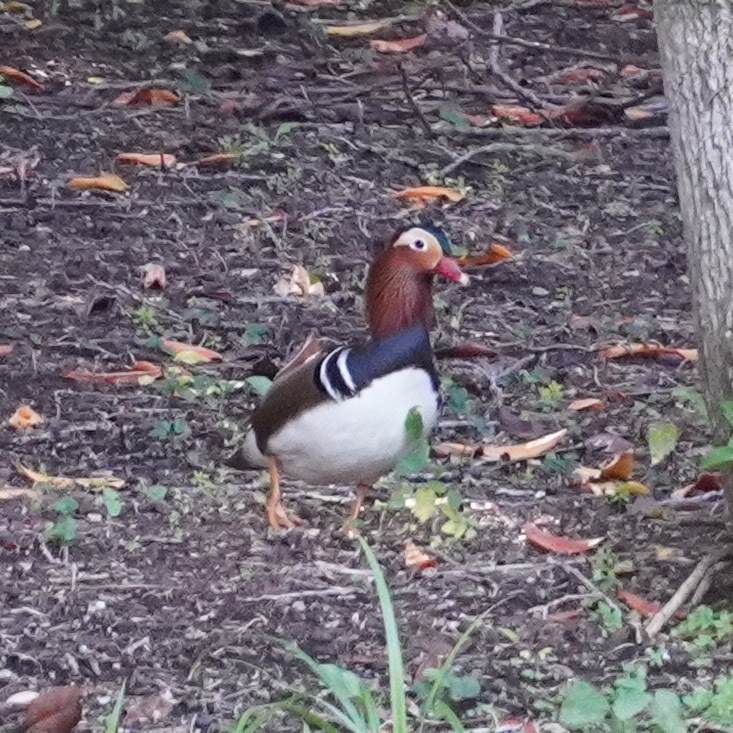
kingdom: Animalia
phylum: Chordata
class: Aves
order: Anseriformes
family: Anatidae
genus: Aix
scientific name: Aix galericulata
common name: Mandarin duck
